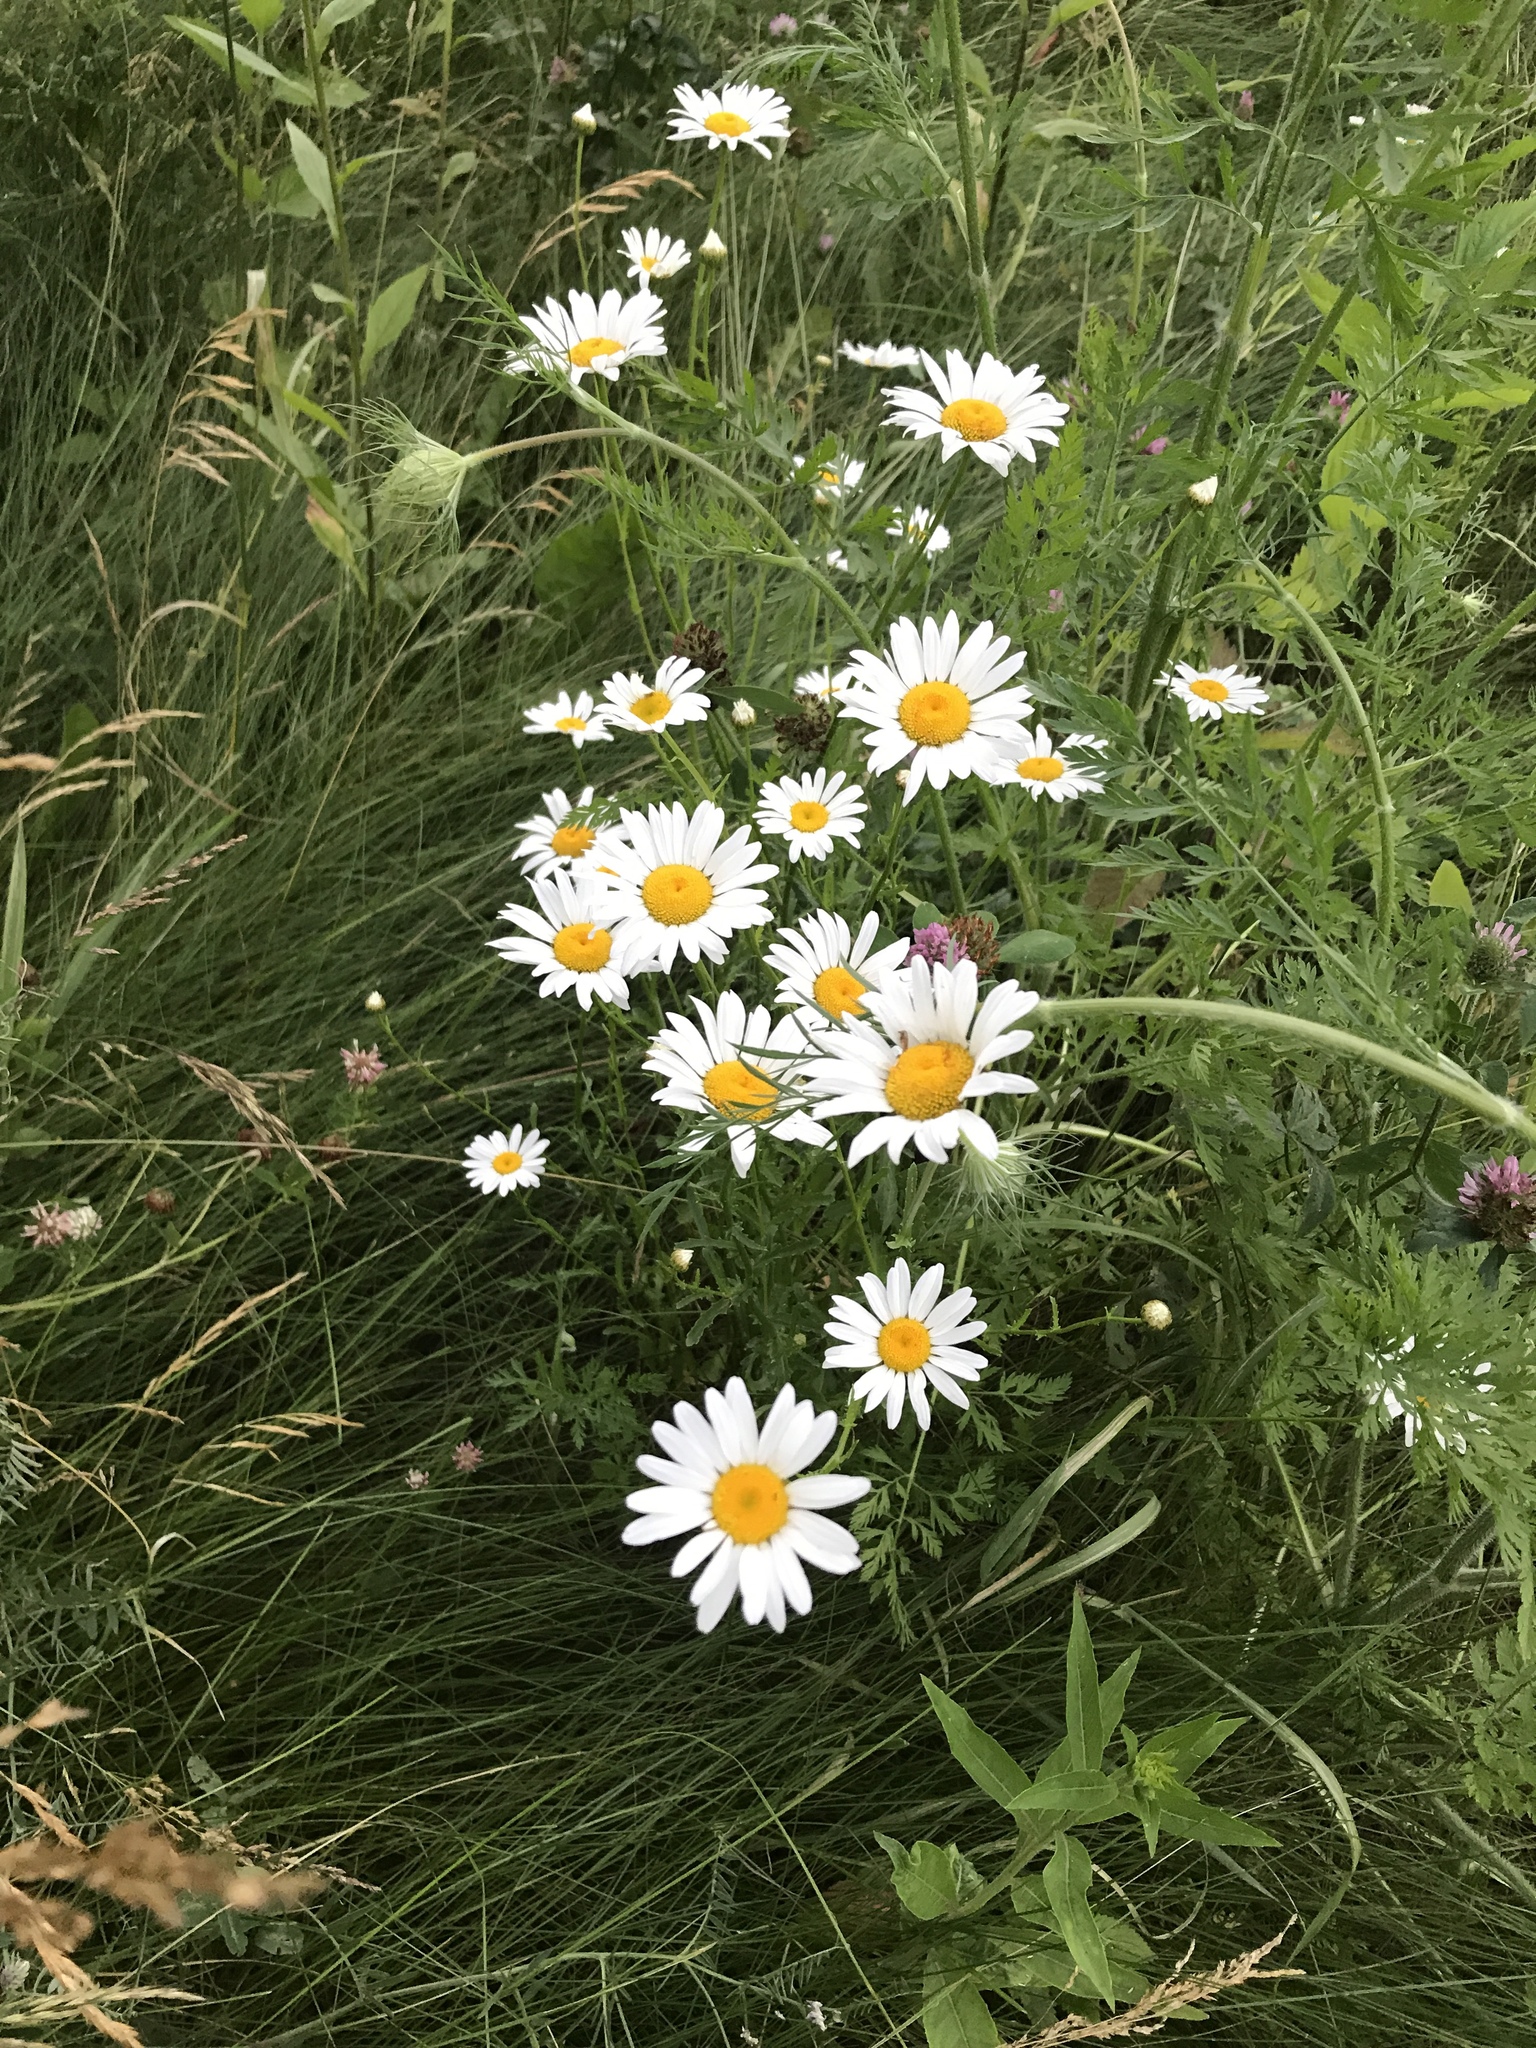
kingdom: Plantae
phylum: Tracheophyta
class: Magnoliopsida
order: Asterales
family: Asteraceae
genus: Leucanthemum
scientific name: Leucanthemum vulgare
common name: Oxeye daisy
